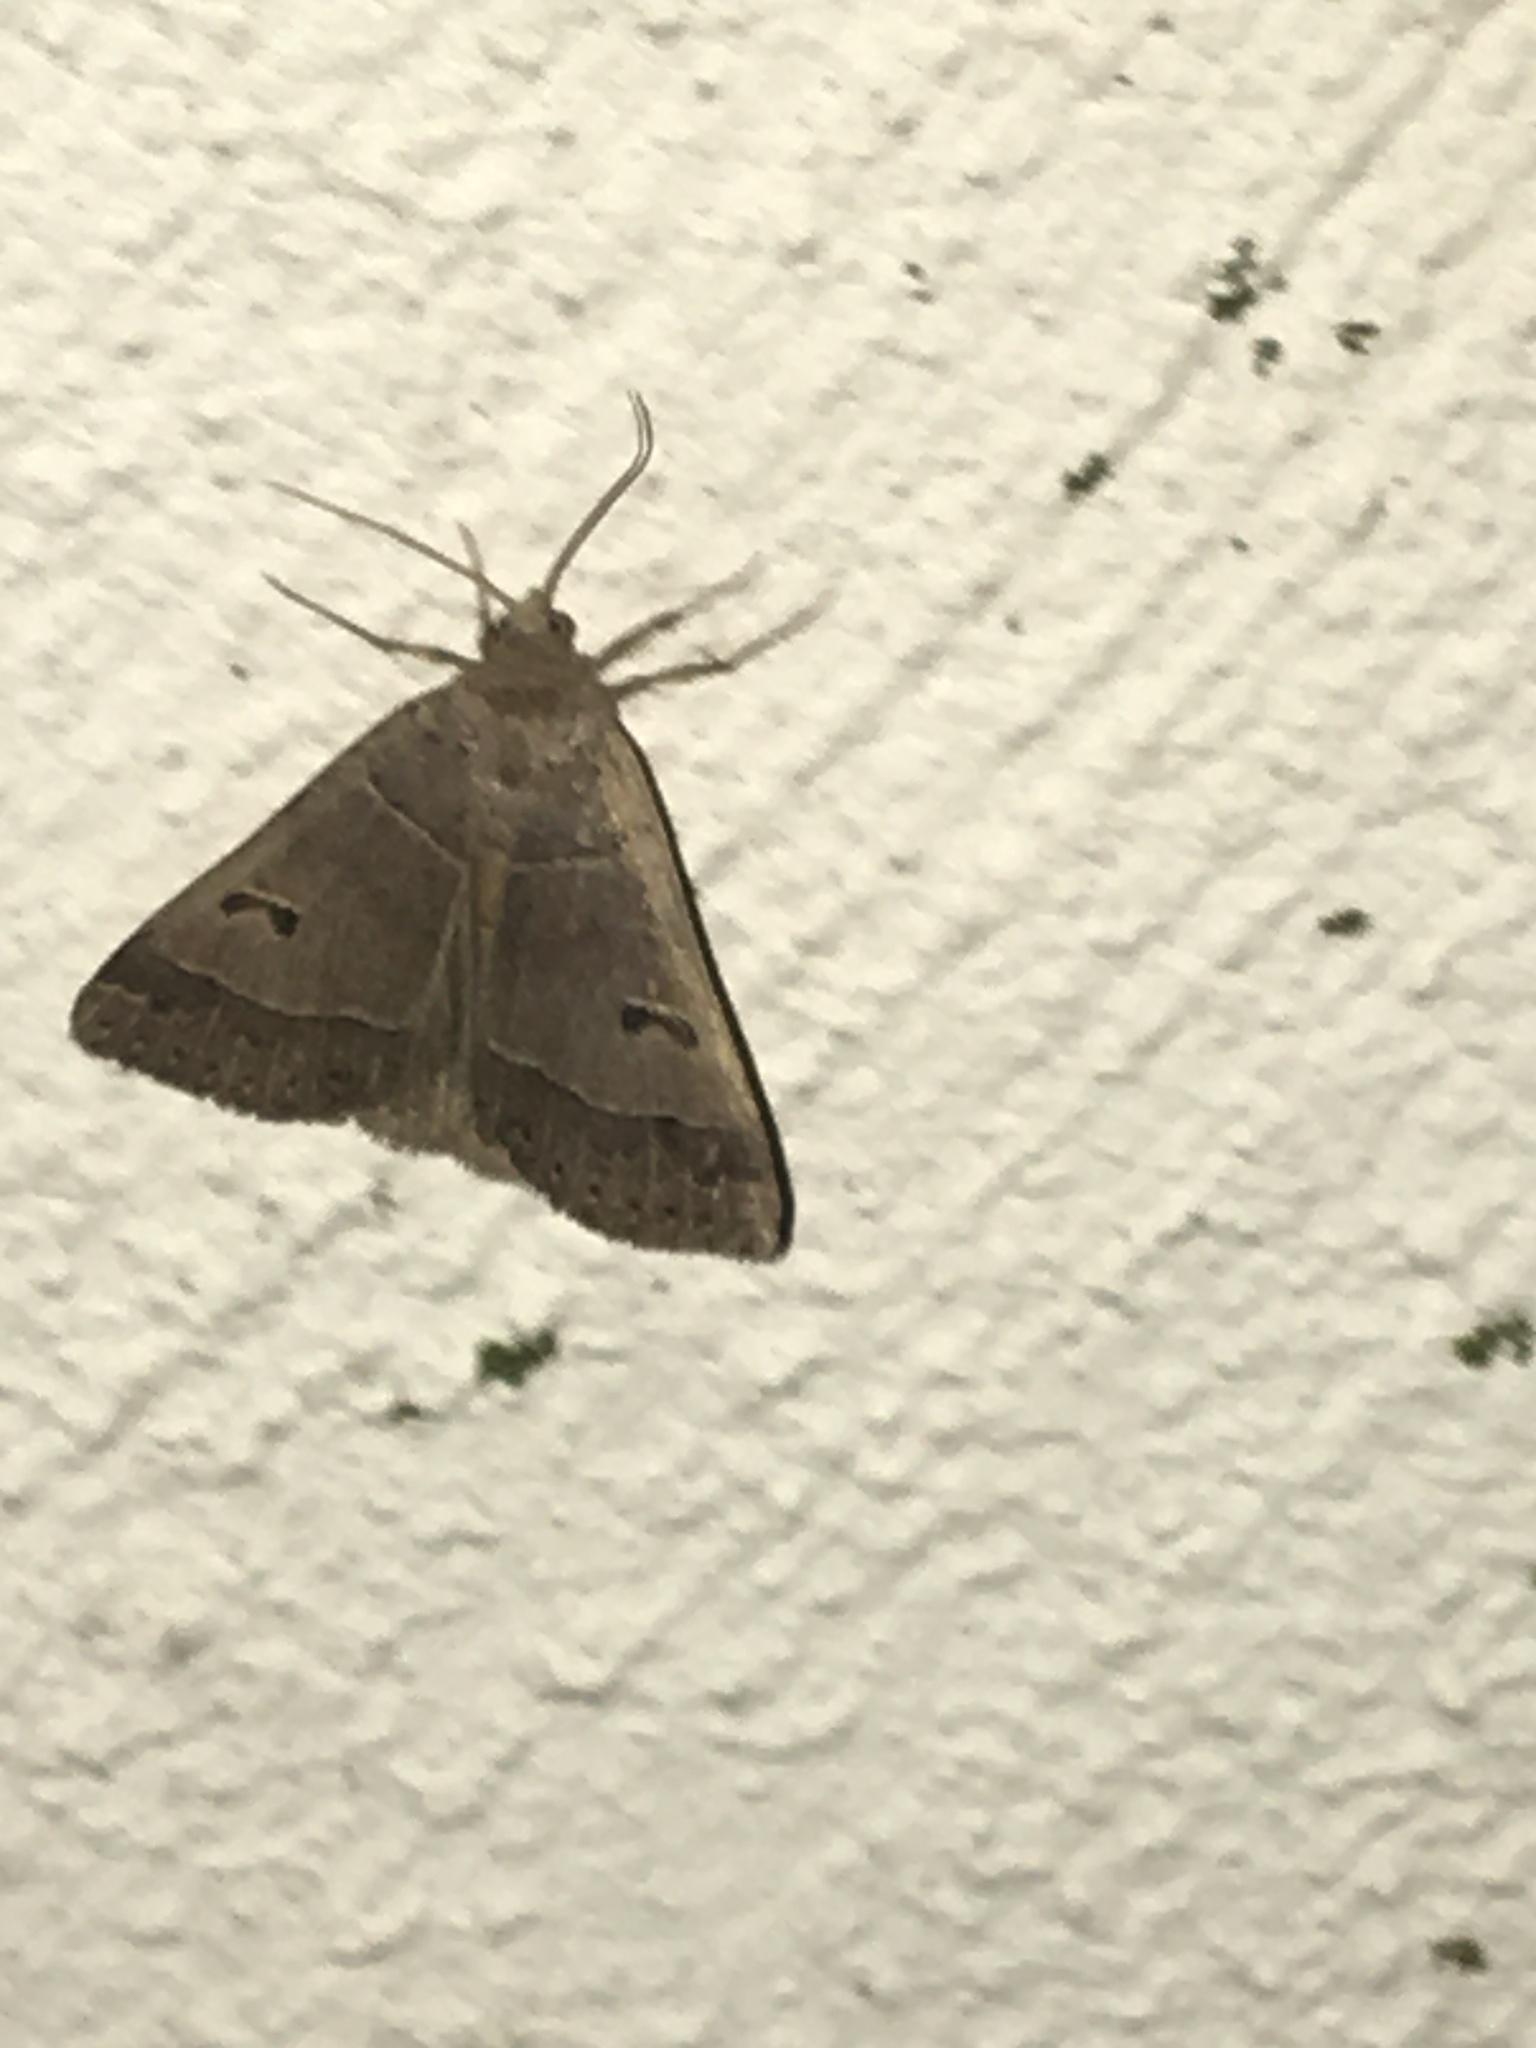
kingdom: Animalia
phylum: Arthropoda
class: Insecta
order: Lepidoptera
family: Erebidae
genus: Phoberia
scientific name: Phoberia atomaris
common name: Common oak moth
